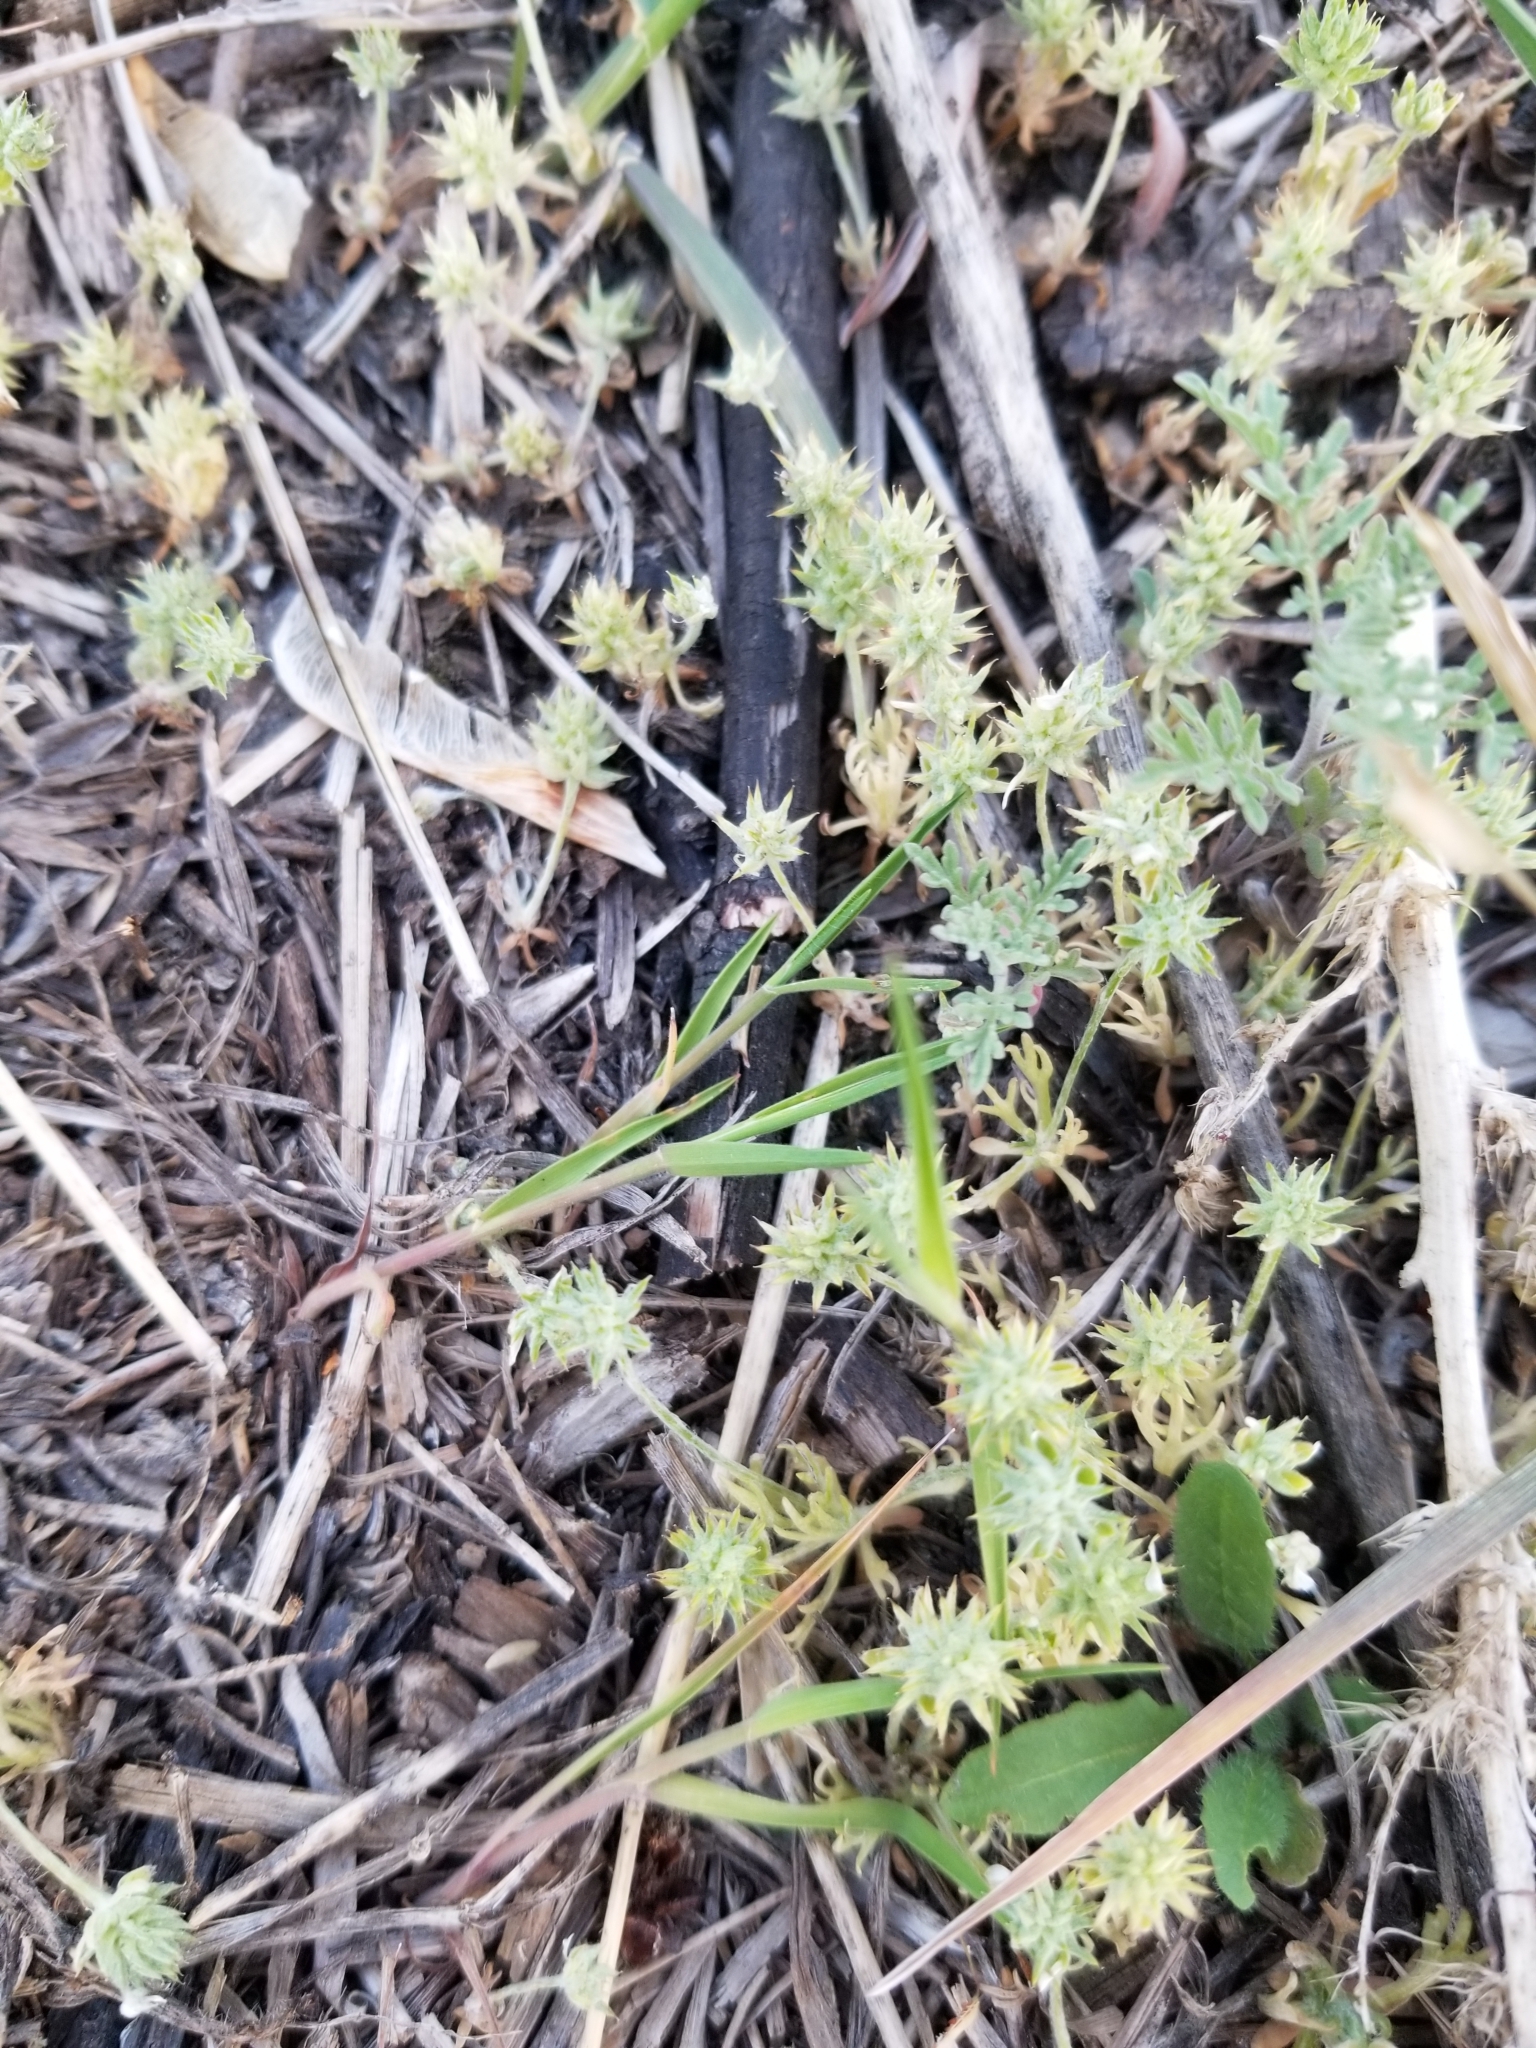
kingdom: Plantae
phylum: Tracheophyta
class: Magnoliopsida
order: Ranunculales
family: Ranunculaceae
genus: Ceratocephala
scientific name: Ceratocephala orthoceras
